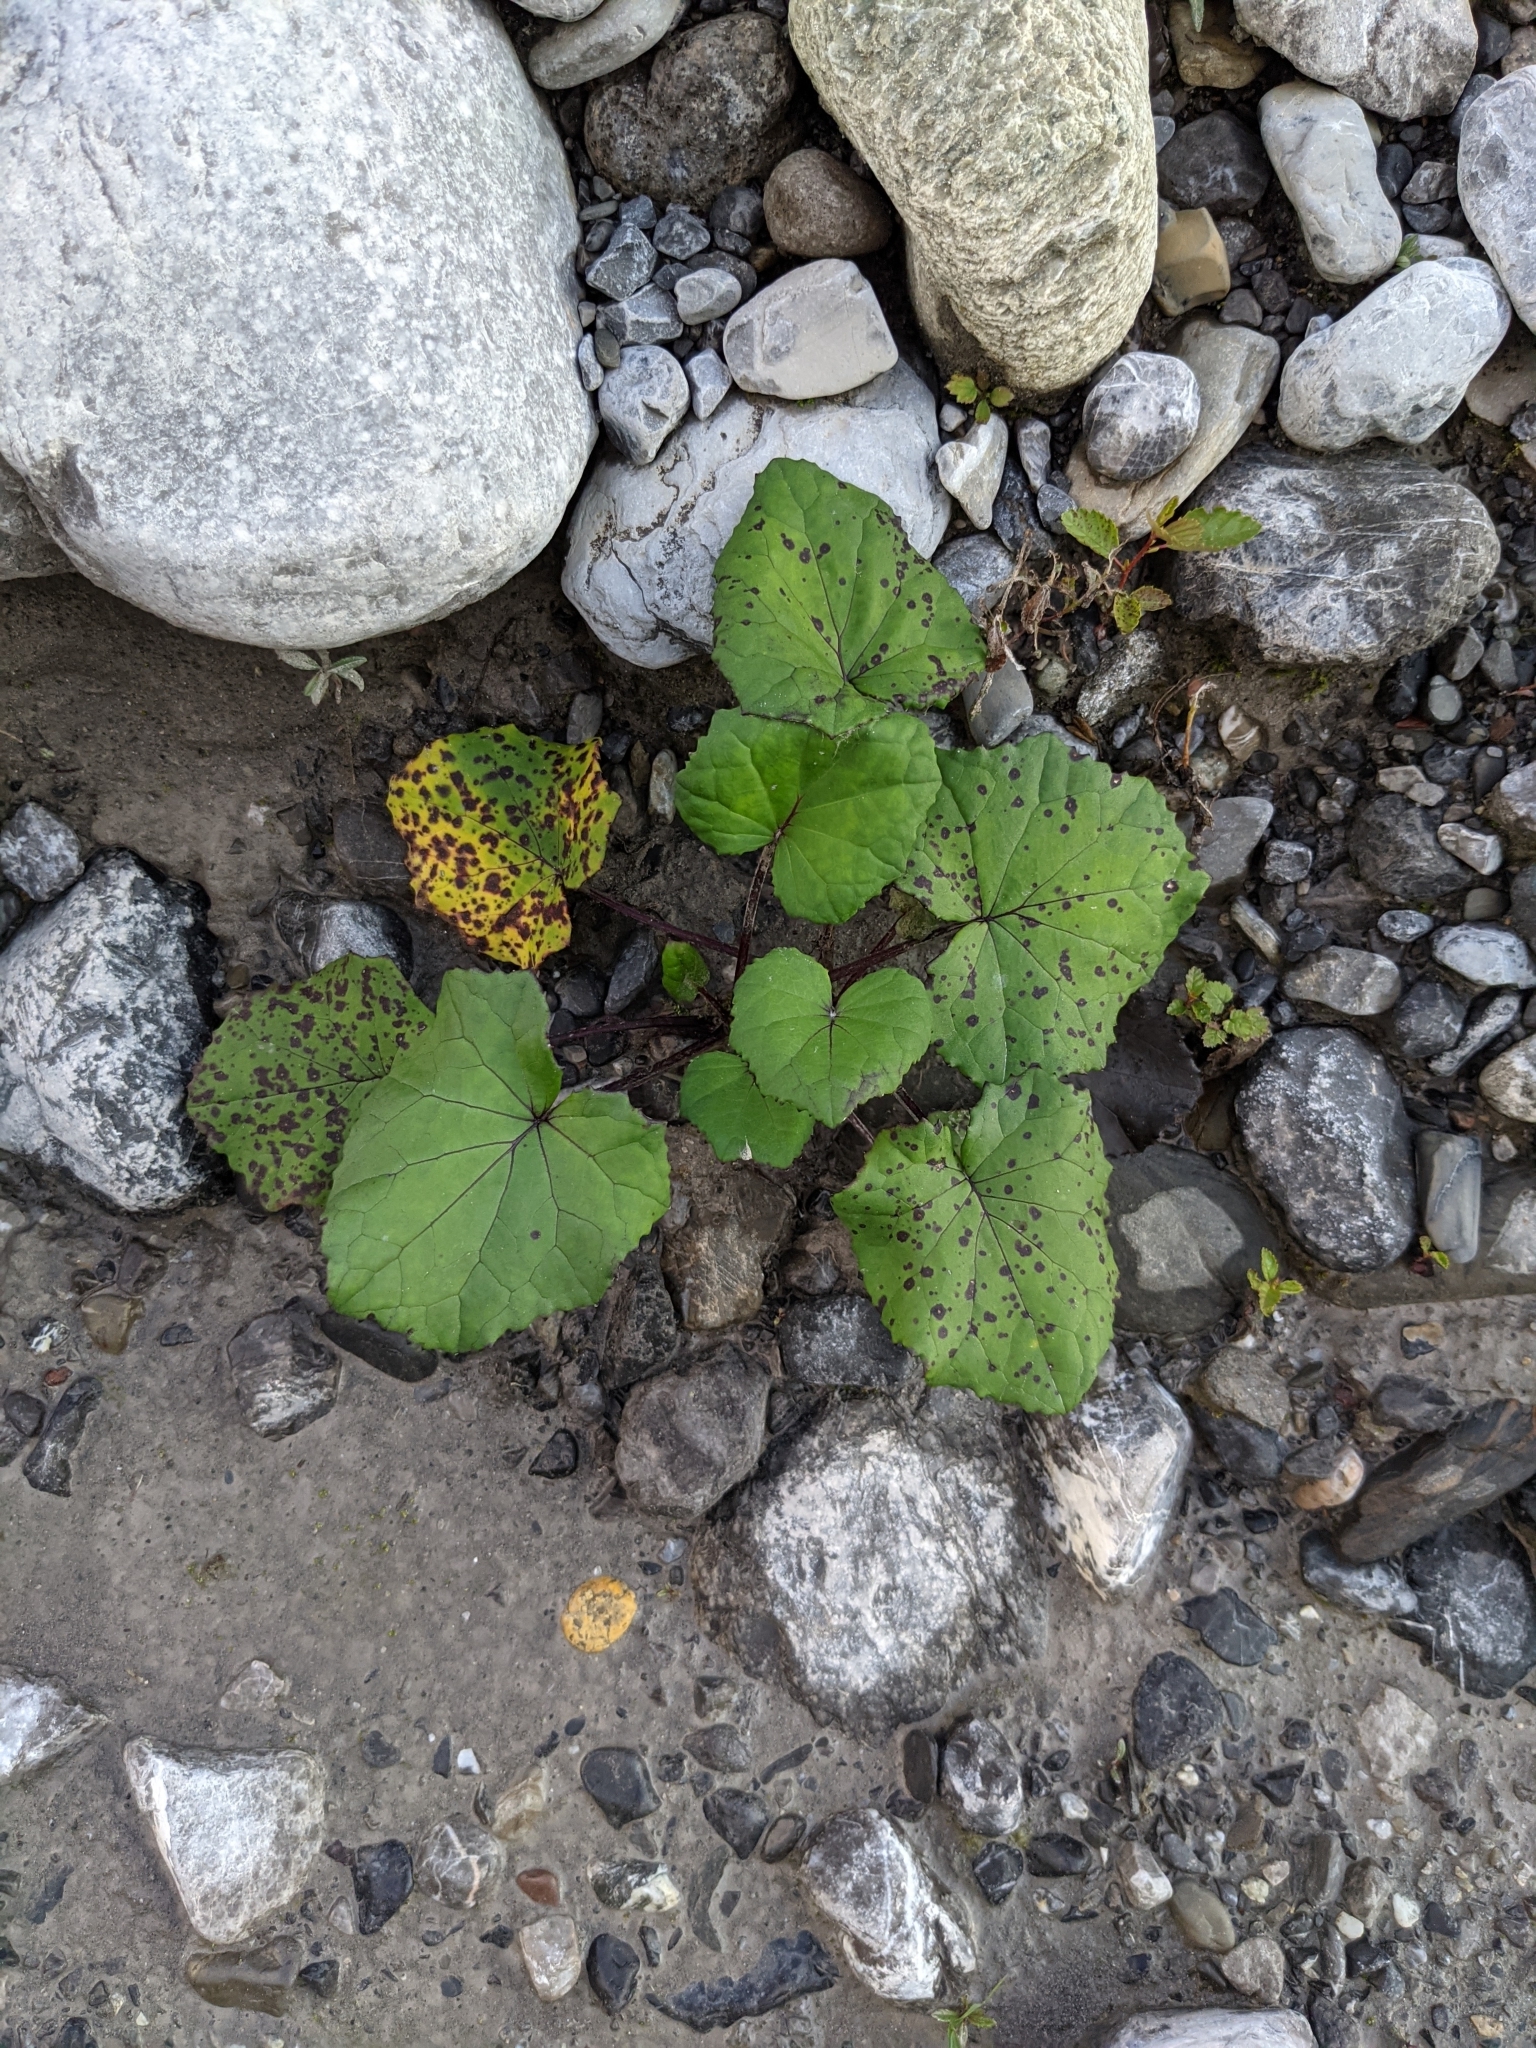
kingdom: Plantae
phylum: Tracheophyta
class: Magnoliopsida
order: Asterales
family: Asteraceae
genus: Tussilago
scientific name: Tussilago farfara
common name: Coltsfoot
